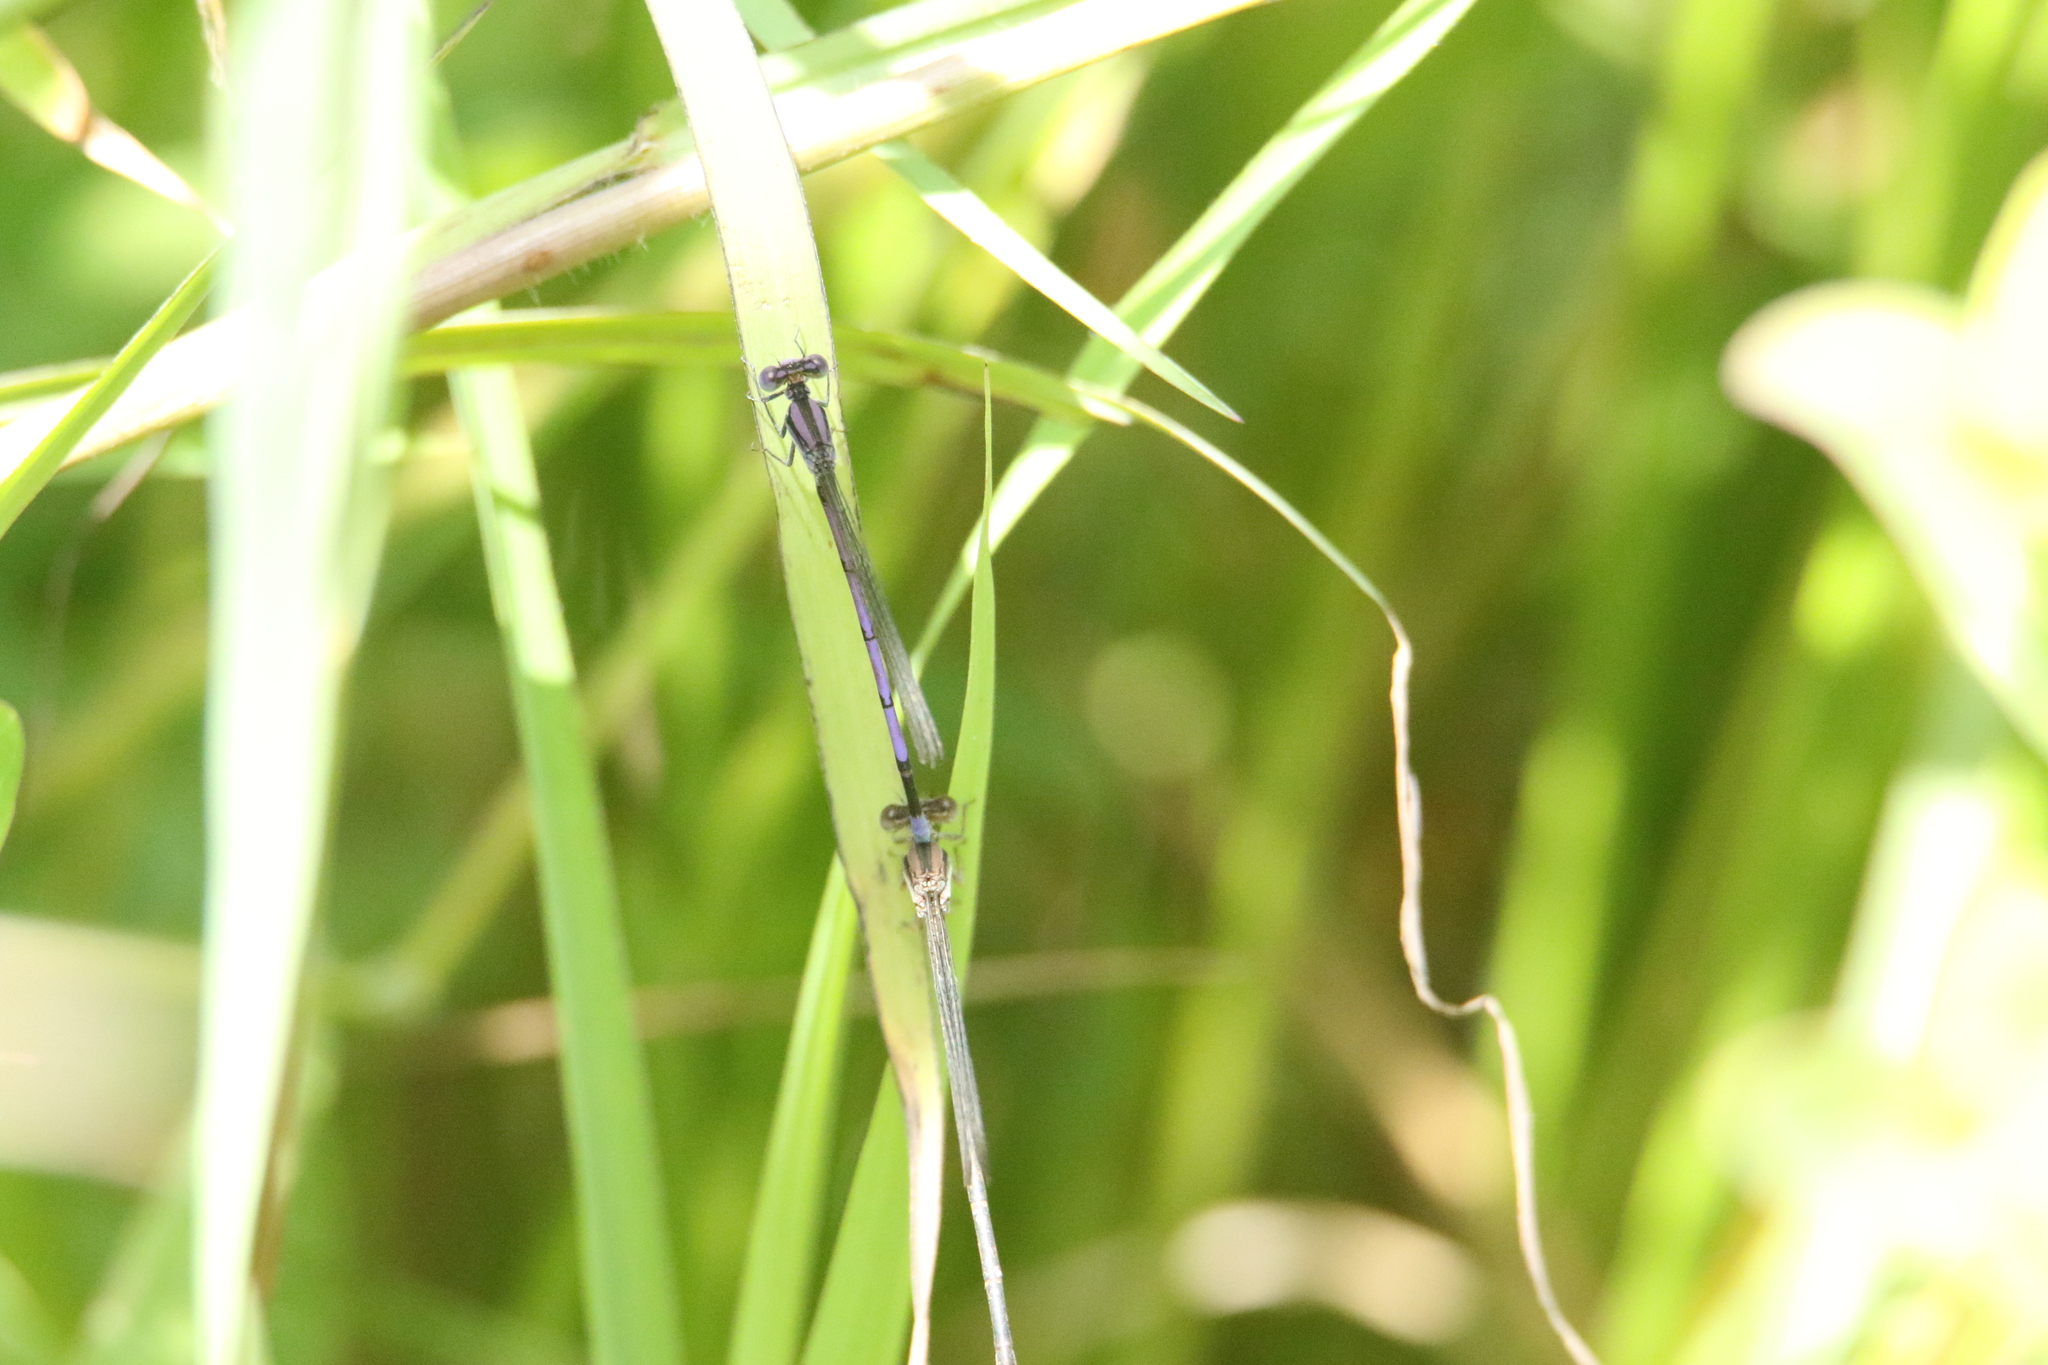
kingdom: Animalia
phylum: Arthropoda
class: Insecta
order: Odonata
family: Coenagrionidae
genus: Argia
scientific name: Argia fumipennis
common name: Variable dancer
